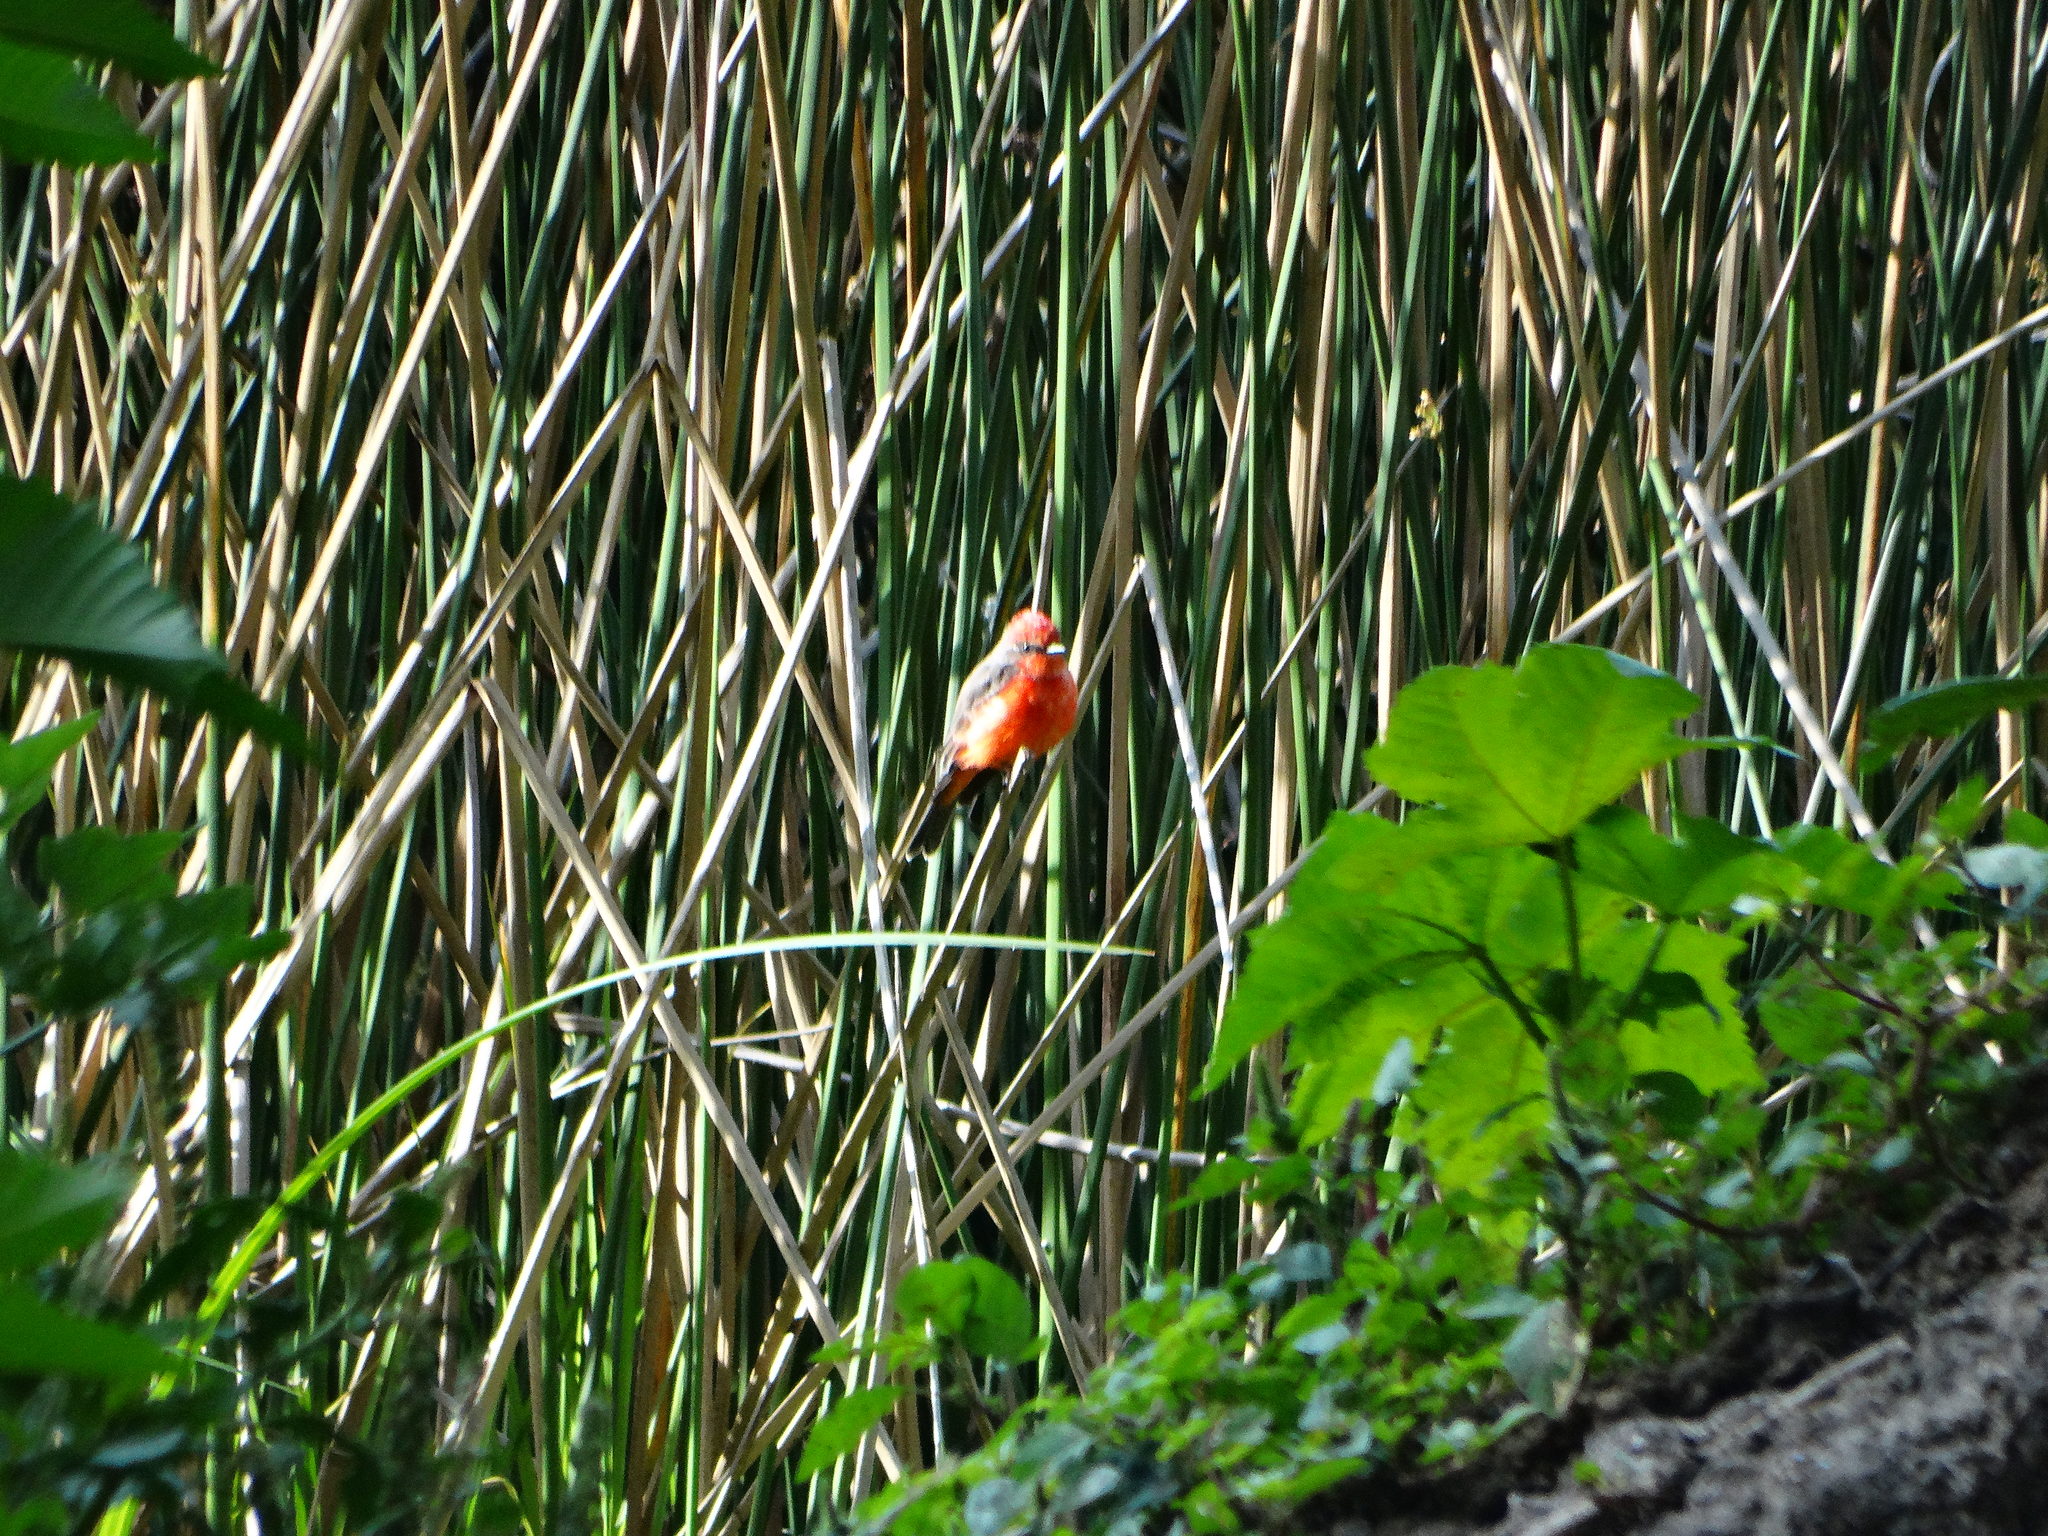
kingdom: Animalia
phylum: Chordata
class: Aves
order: Passeriformes
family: Tyrannidae
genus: Pyrocephalus
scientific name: Pyrocephalus rubinus
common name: Vermilion flycatcher
